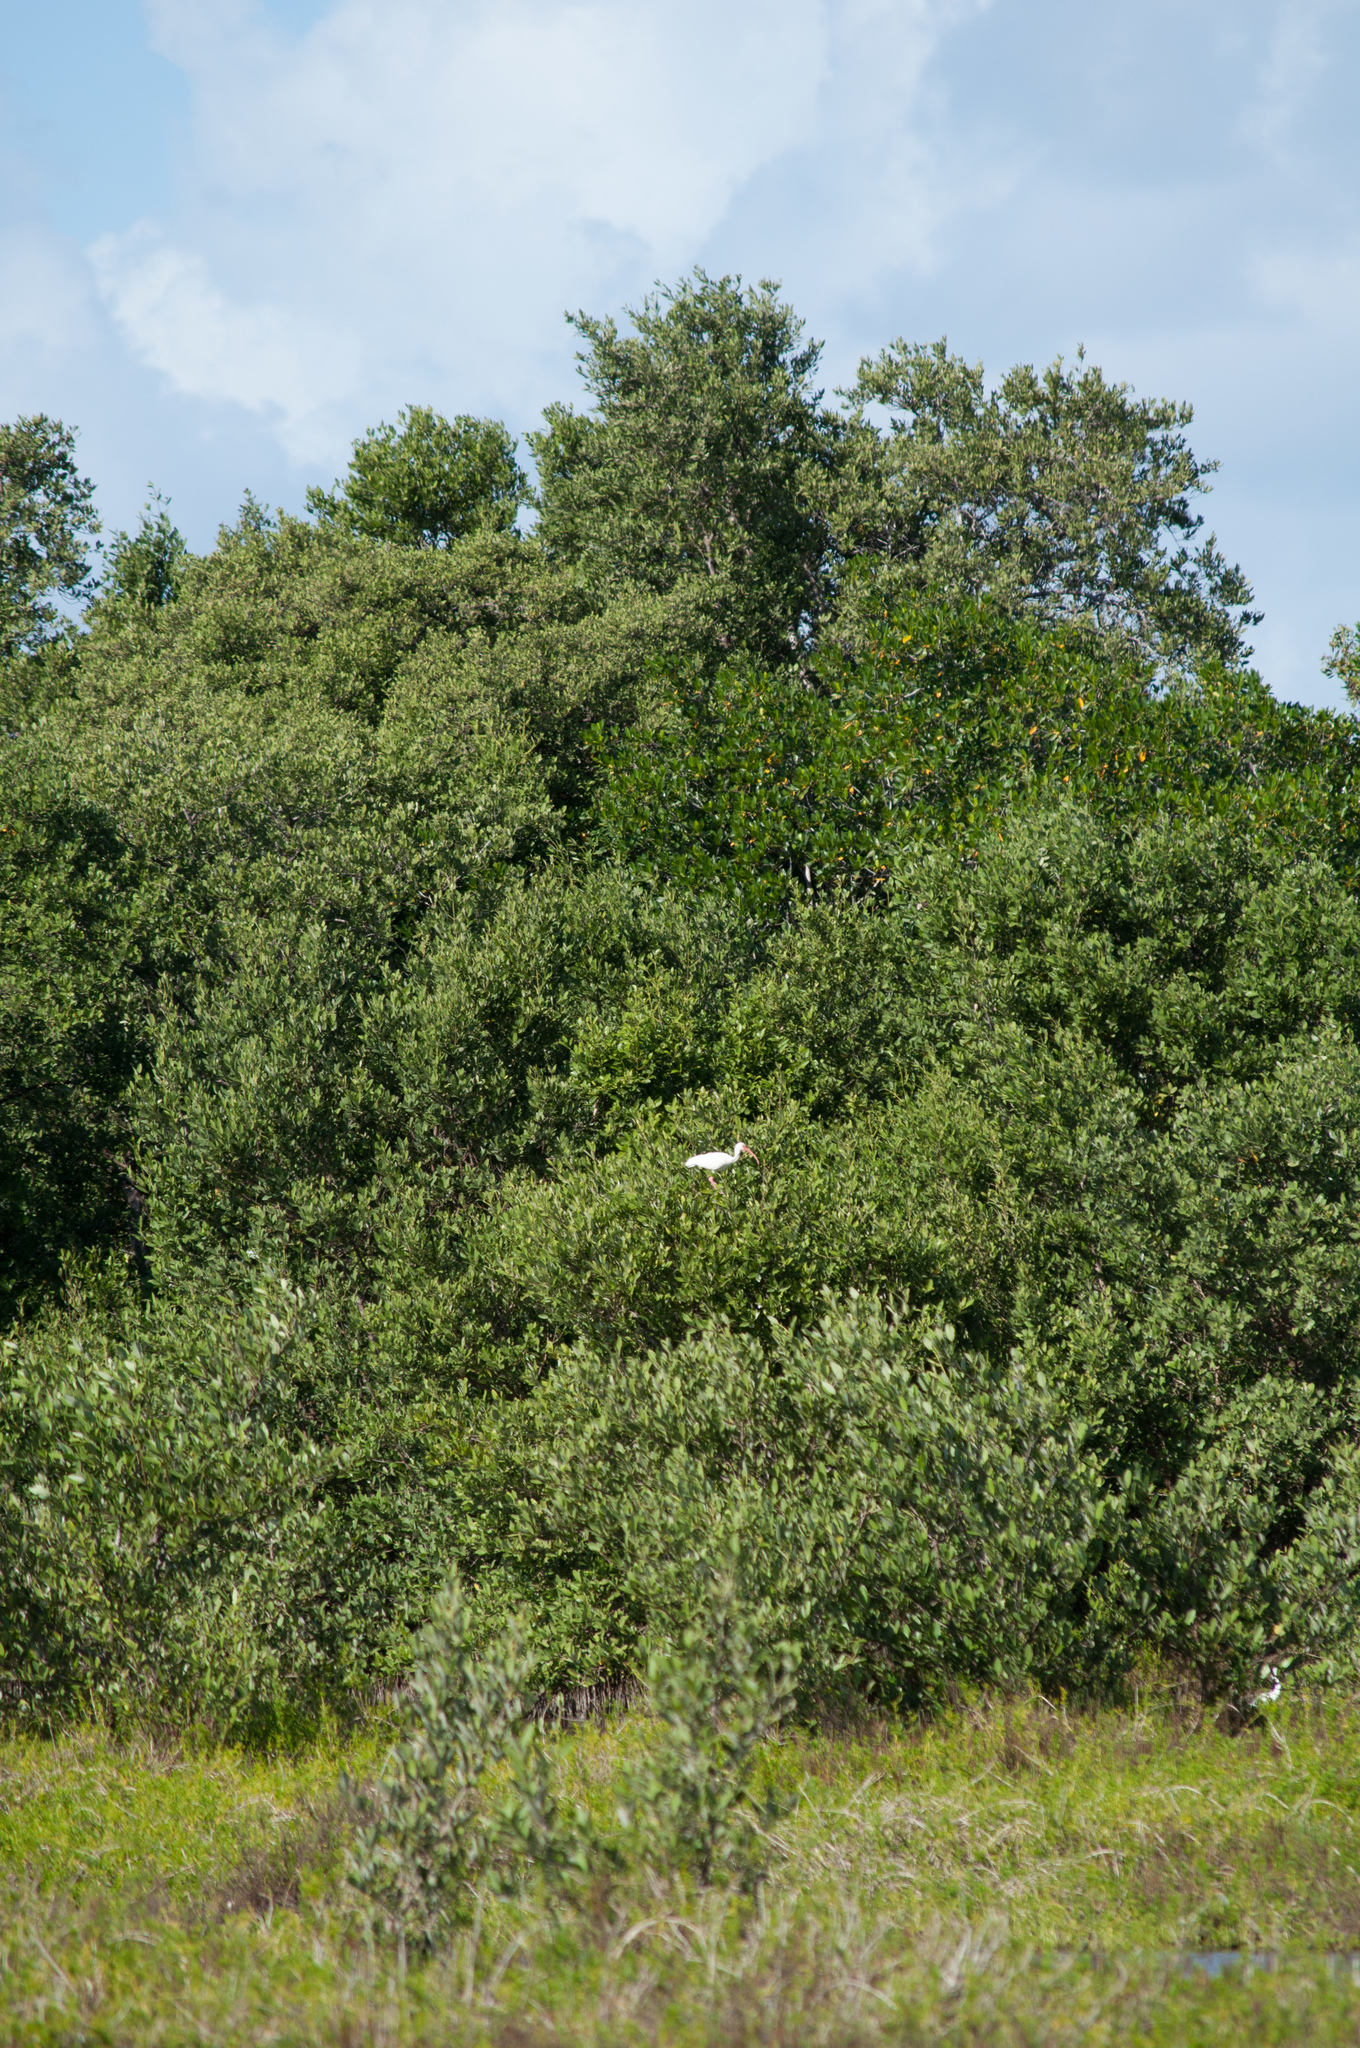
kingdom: Animalia
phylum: Chordata
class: Aves
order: Pelecaniformes
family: Threskiornithidae
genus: Eudocimus
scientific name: Eudocimus albus
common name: White ibis
